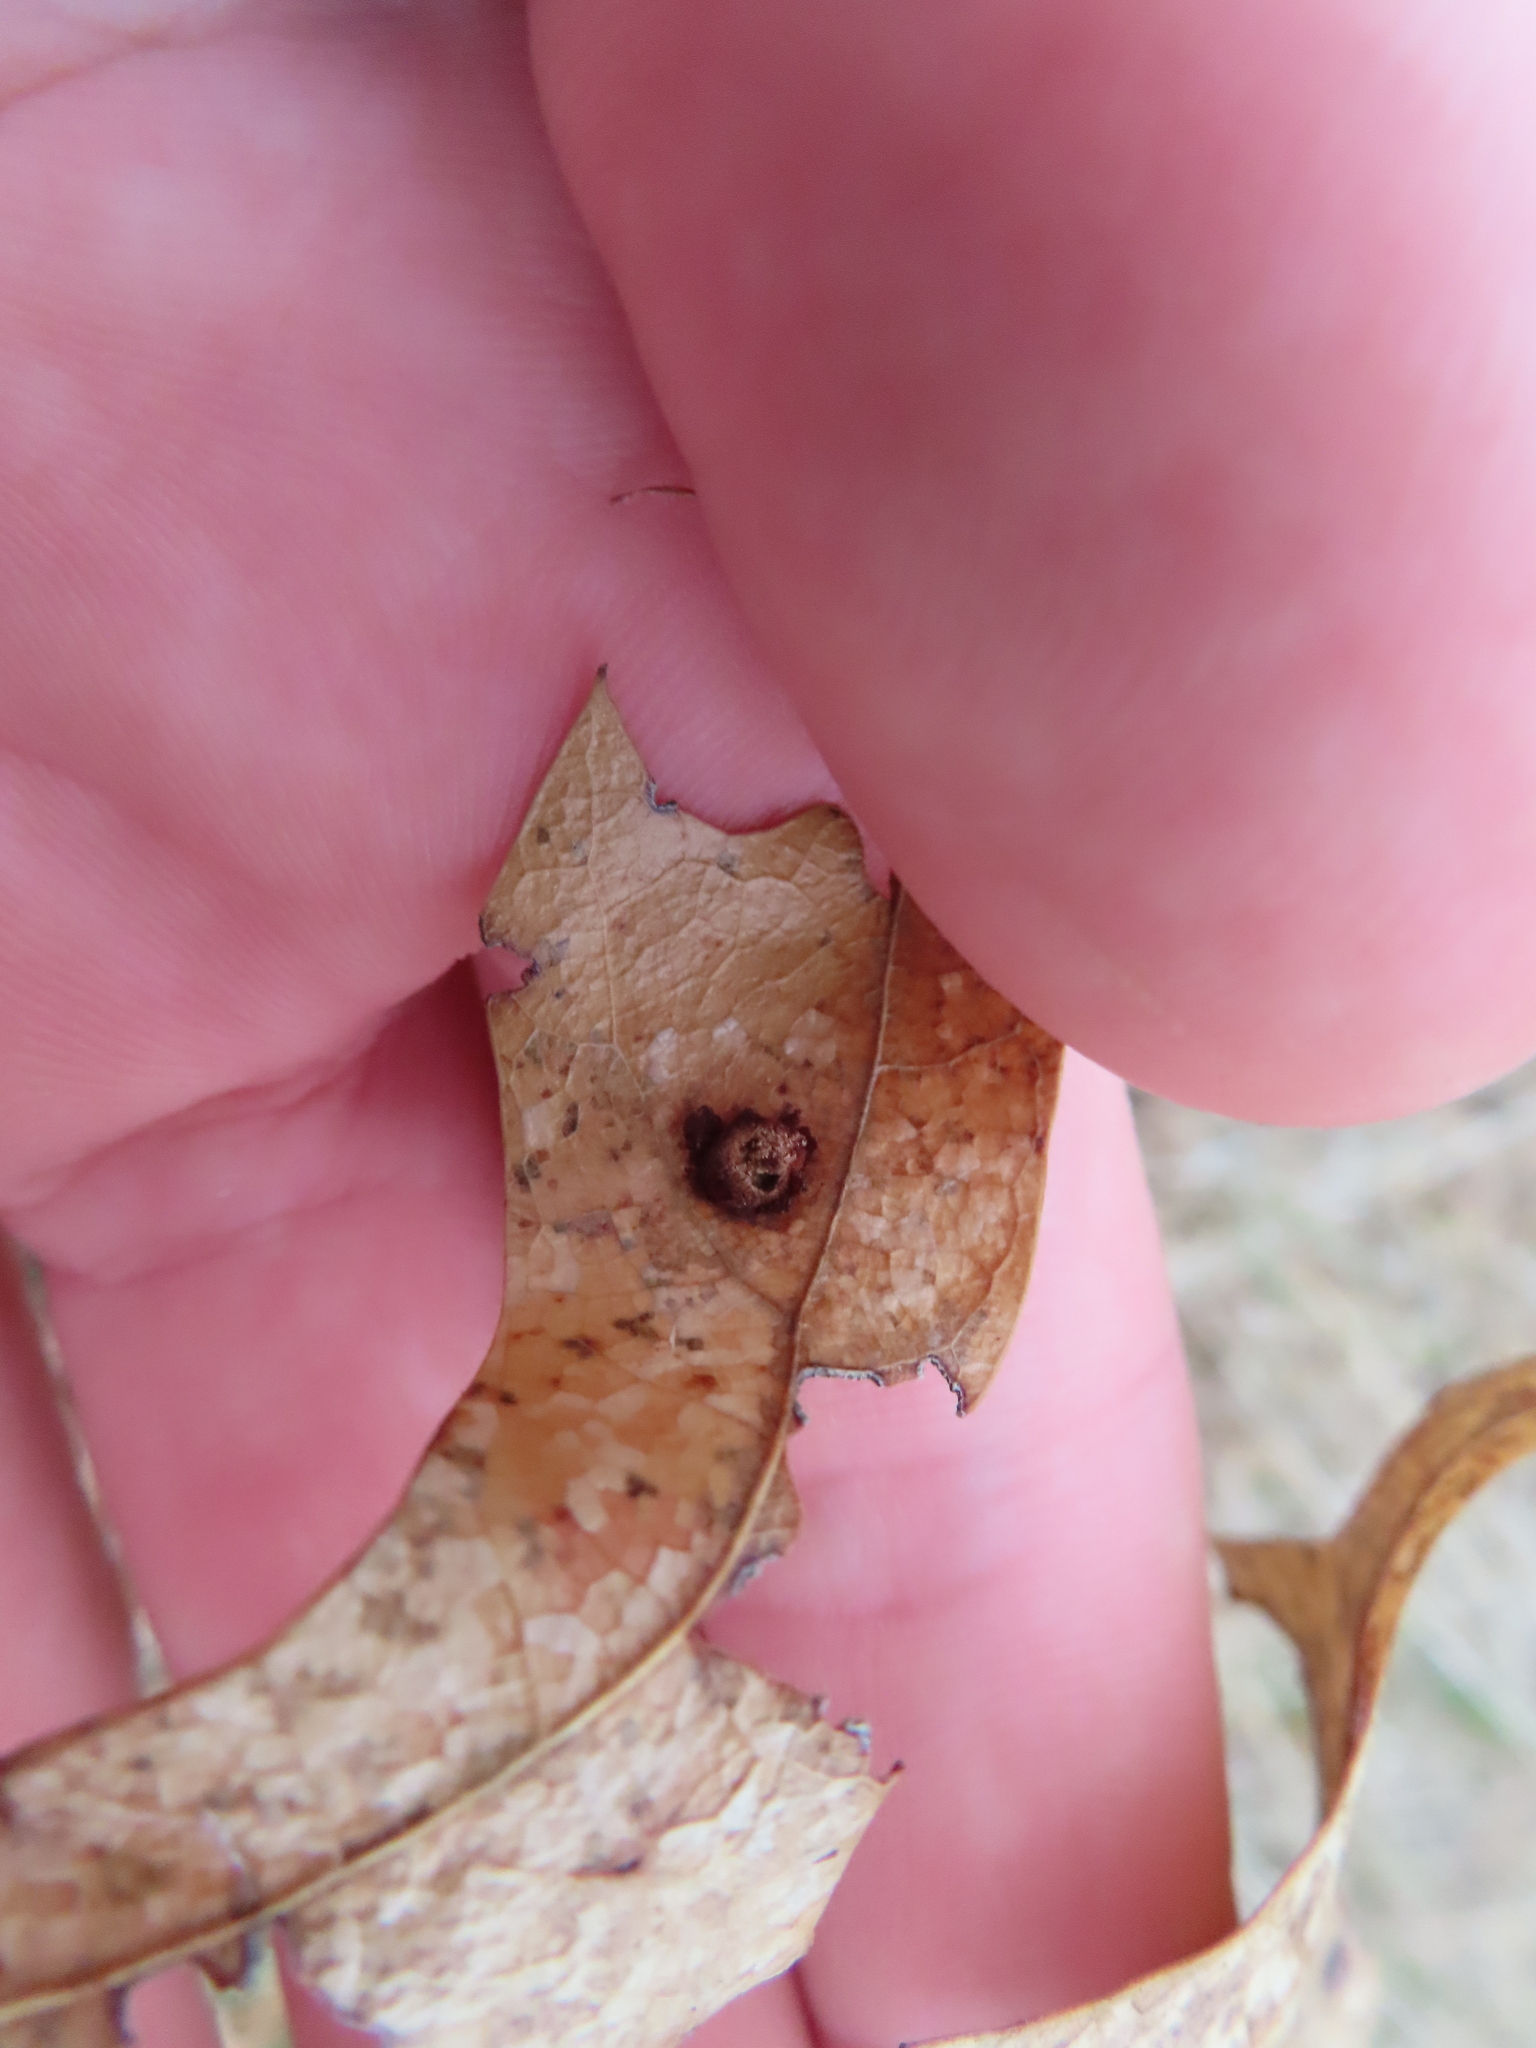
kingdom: Animalia
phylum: Arthropoda
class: Insecta
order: Diptera
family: Cecidomyiidae
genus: Polystepha
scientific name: Polystepha pilulae
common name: Oak leaf gall midge
